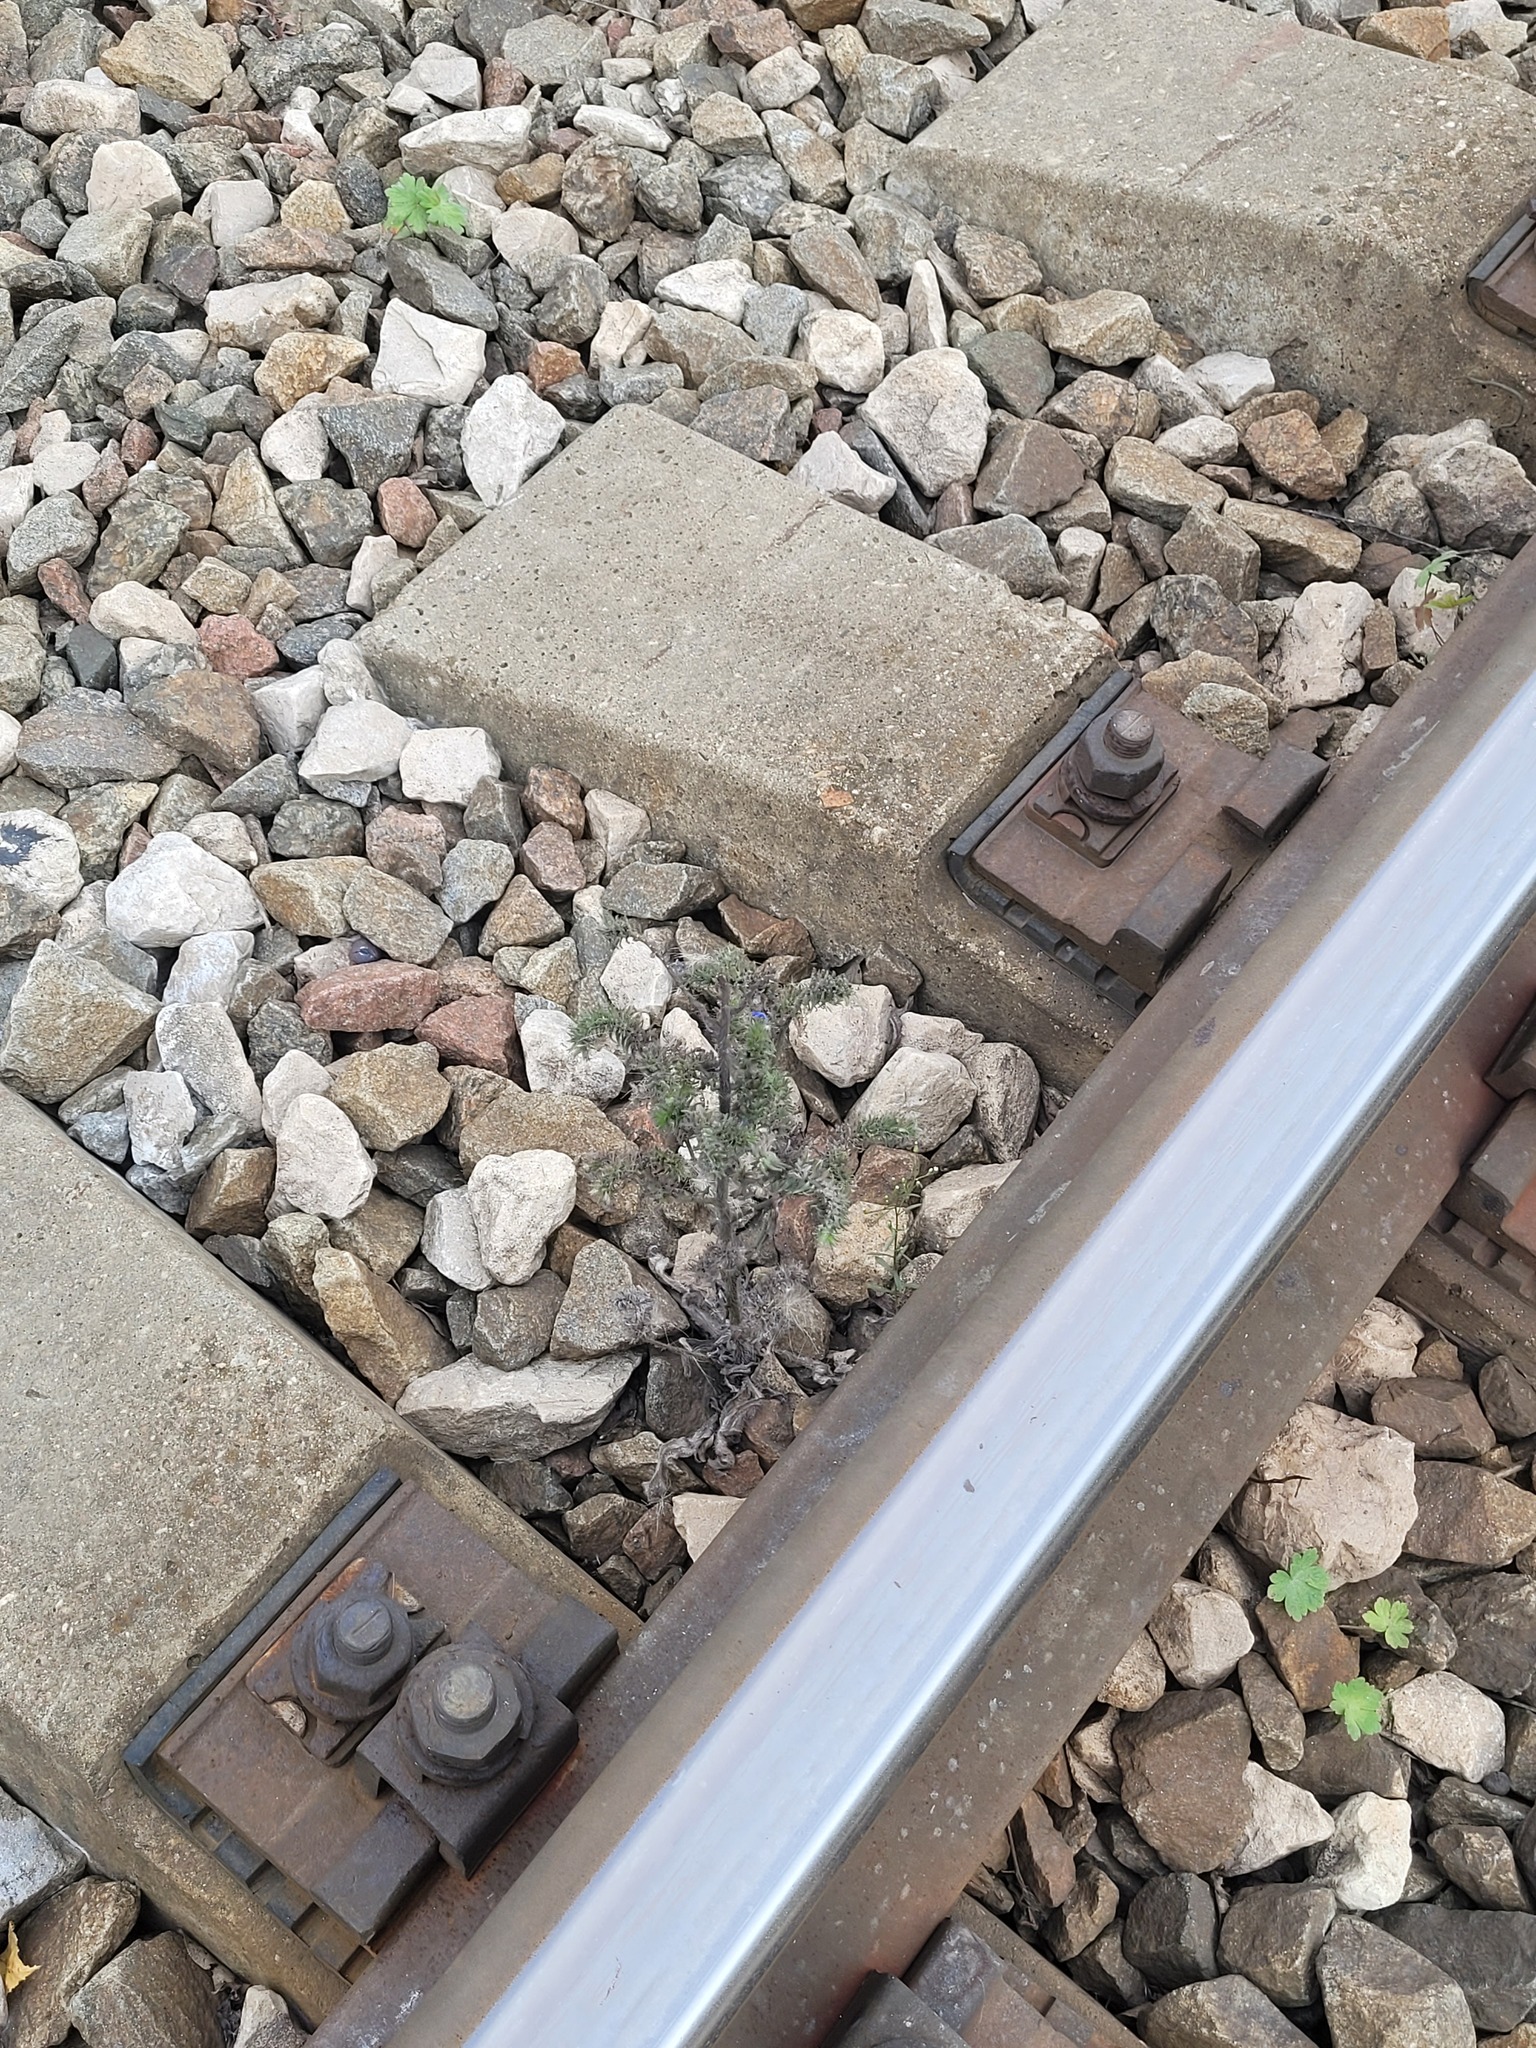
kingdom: Plantae
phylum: Tracheophyta
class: Magnoliopsida
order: Boraginales
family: Boraginaceae
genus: Echium
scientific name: Echium vulgare
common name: Common viper's bugloss
